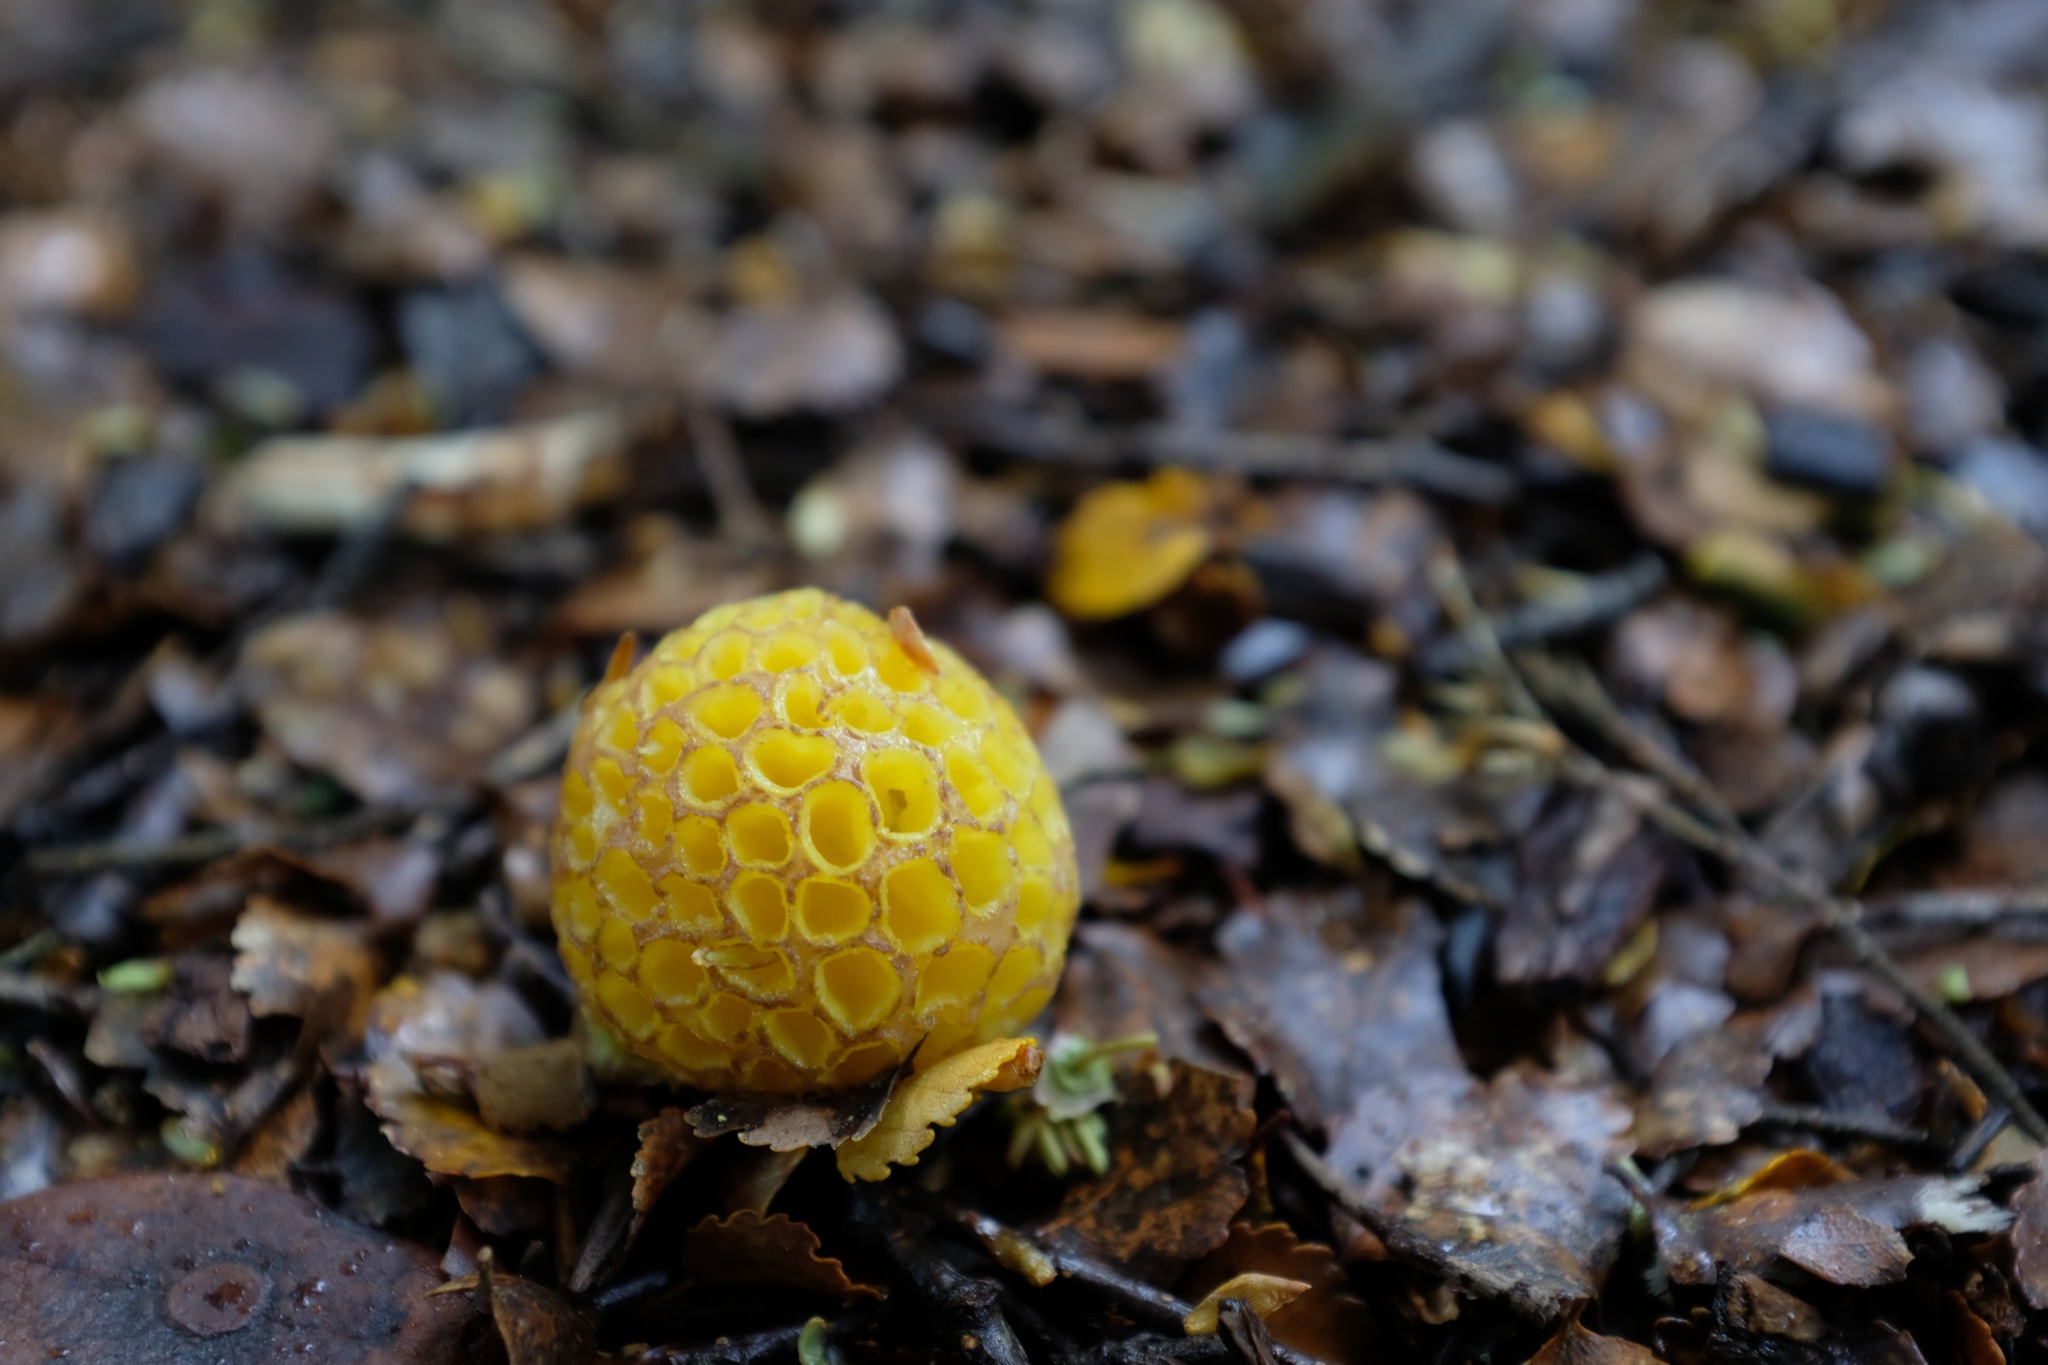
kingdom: Fungi
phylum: Ascomycota
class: Leotiomycetes
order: Cyttariales
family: Cyttariaceae
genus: Cyttaria
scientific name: Cyttaria gunnii
